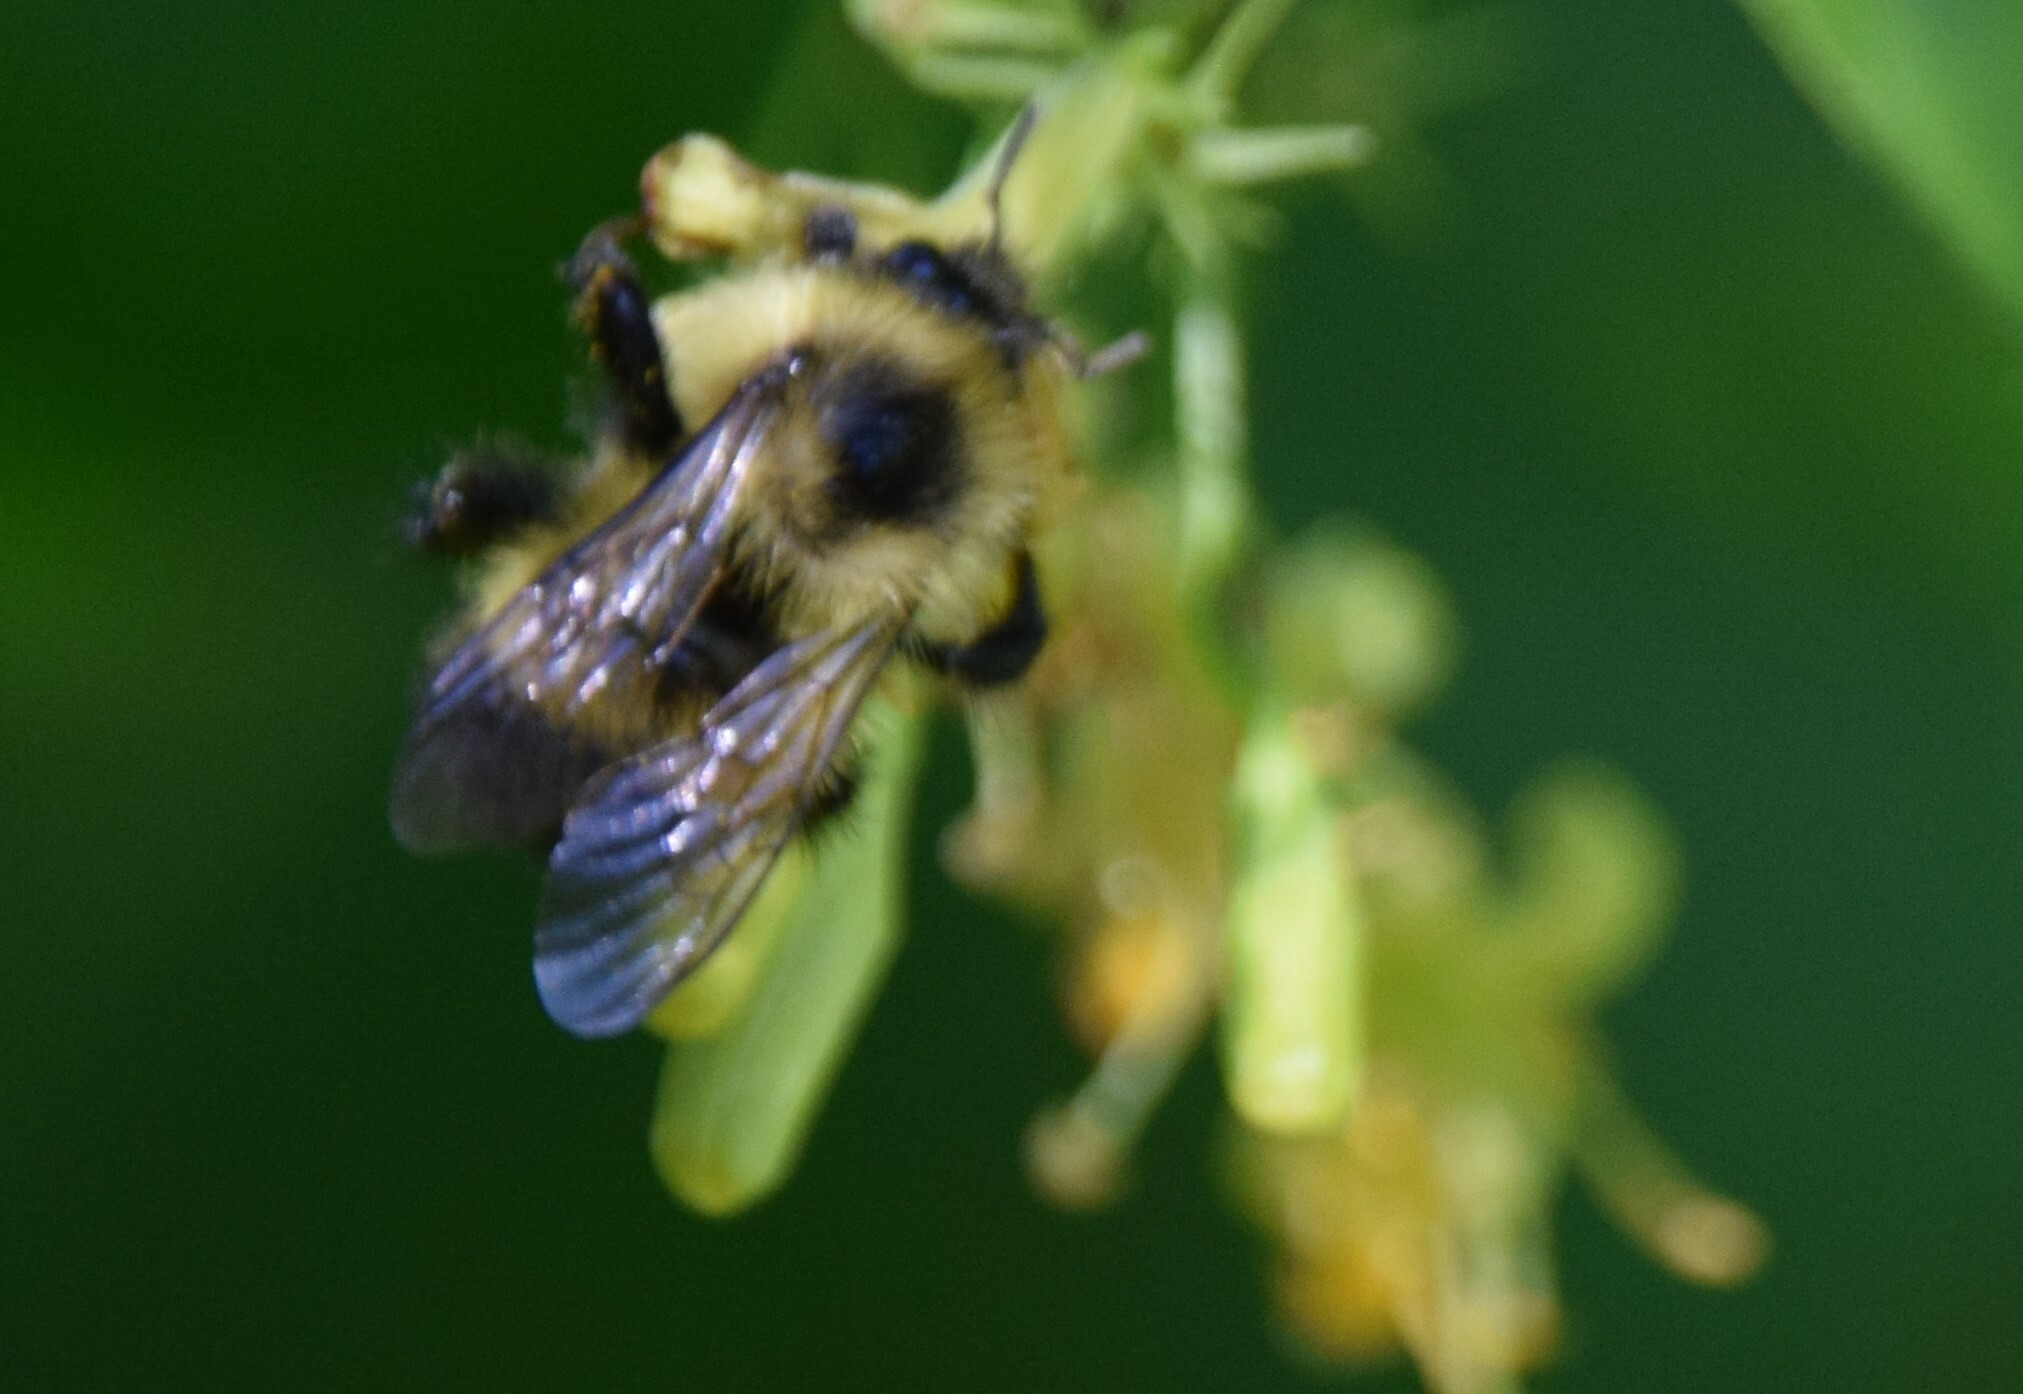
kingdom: Animalia
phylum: Arthropoda
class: Insecta
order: Hymenoptera
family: Apidae
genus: Pyrobombus
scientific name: Pyrobombus
